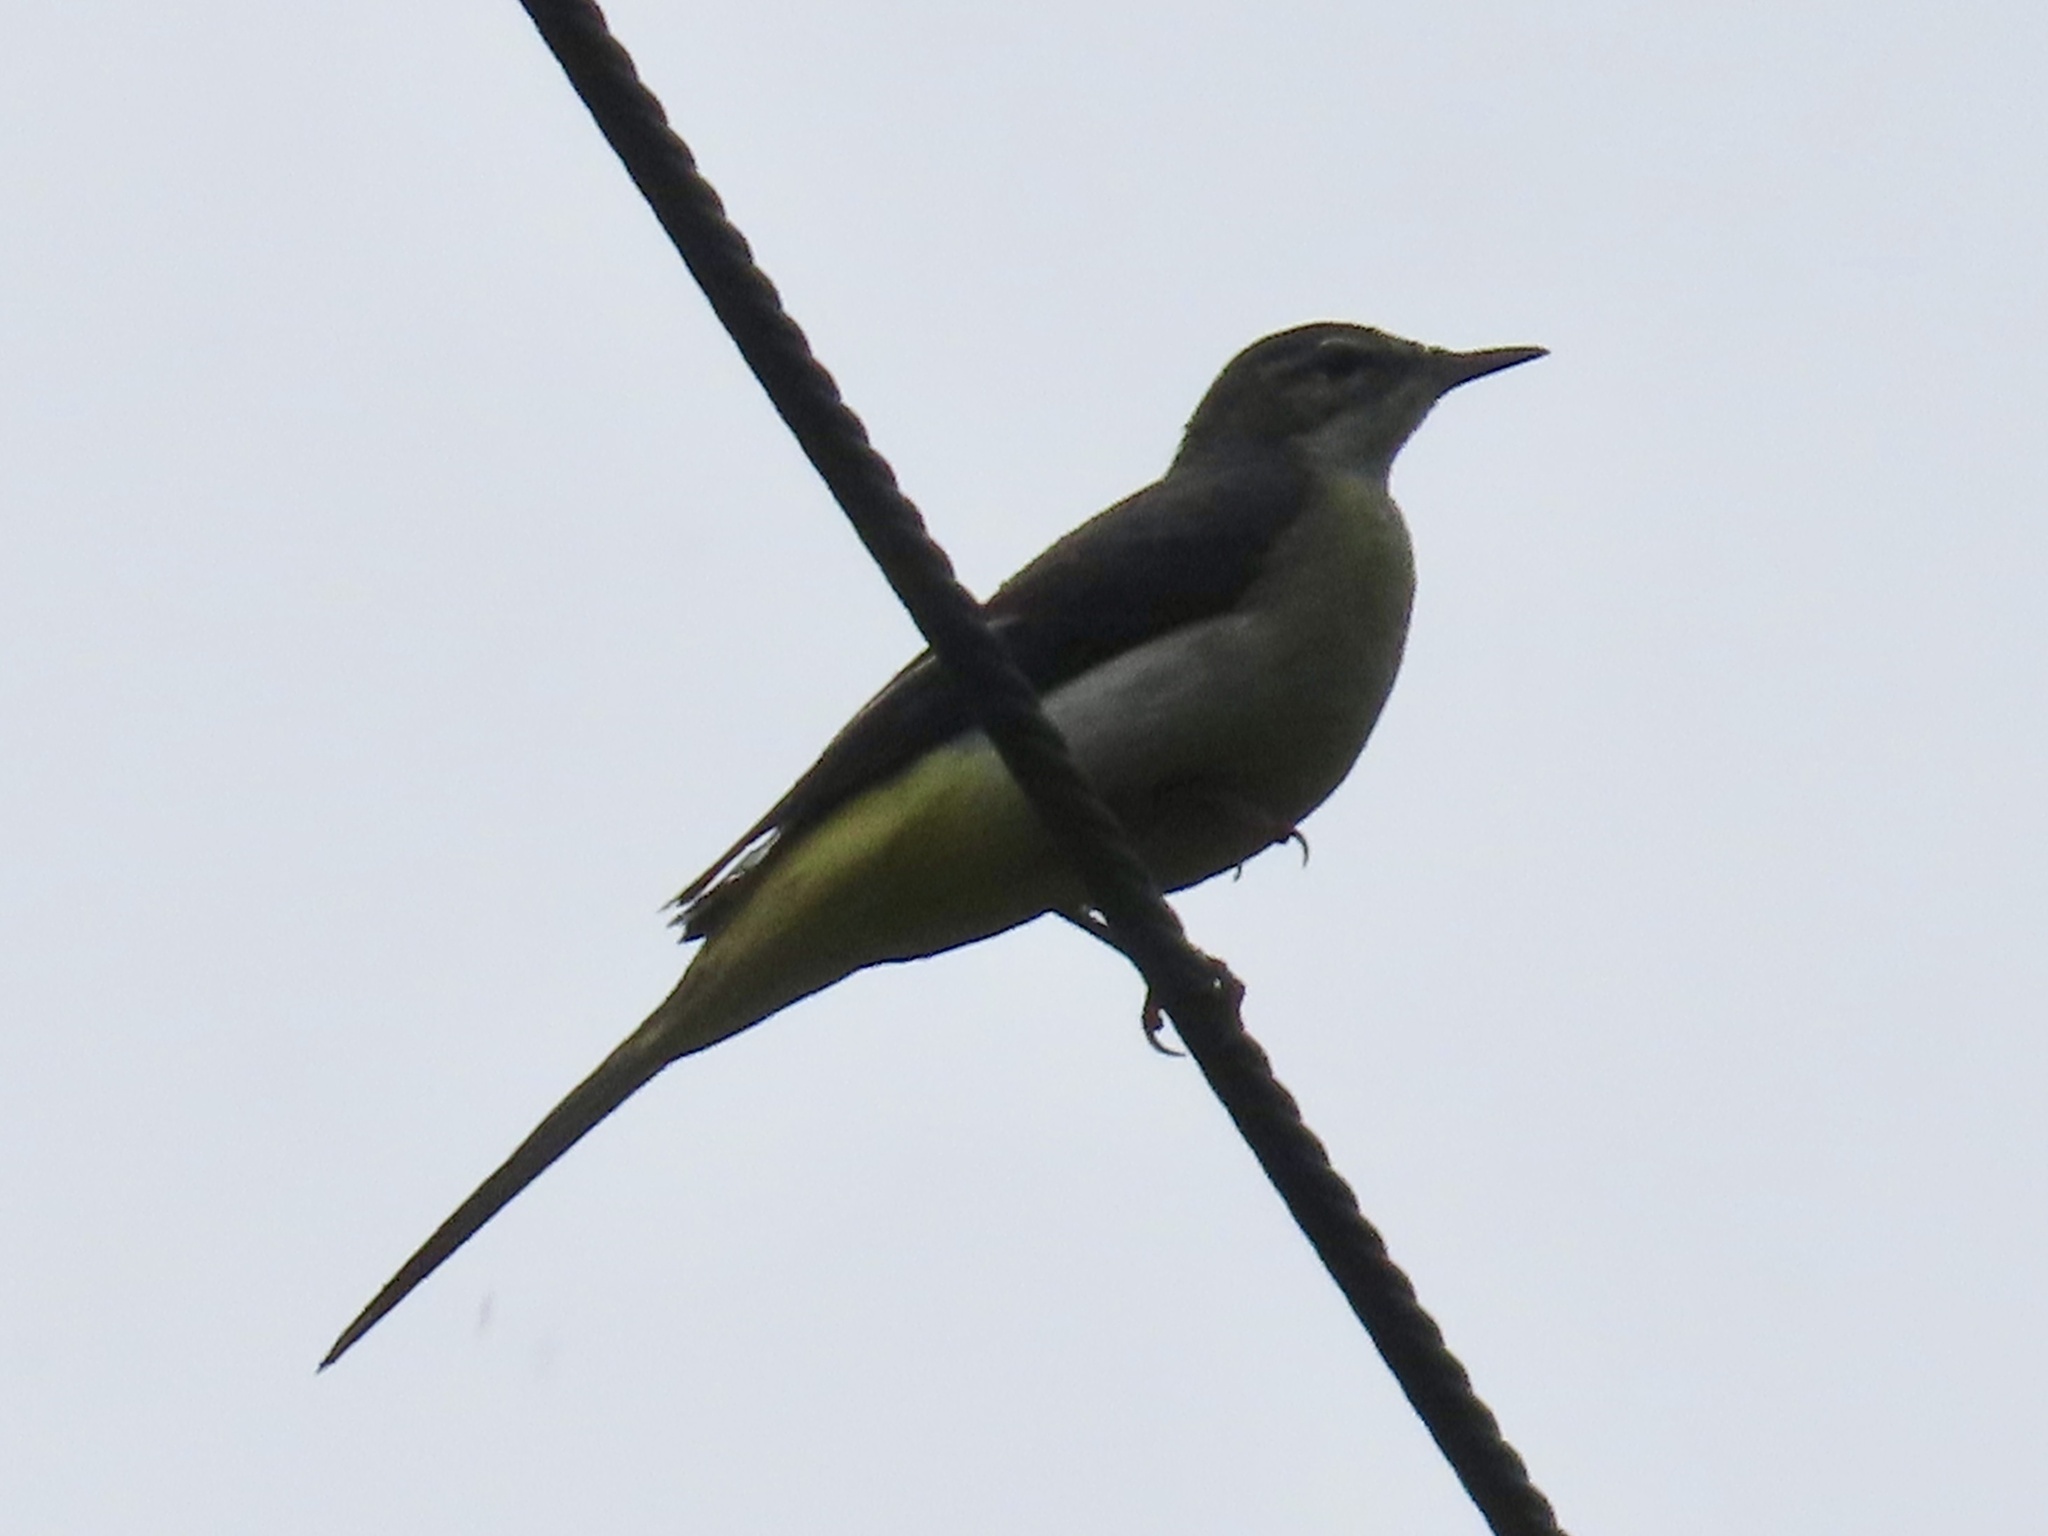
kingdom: Animalia
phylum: Chordata
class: Aves
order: Passeriformes
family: Motacillidae
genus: Motacilla
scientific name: Motacilla cinerea
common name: Grey wagtail
